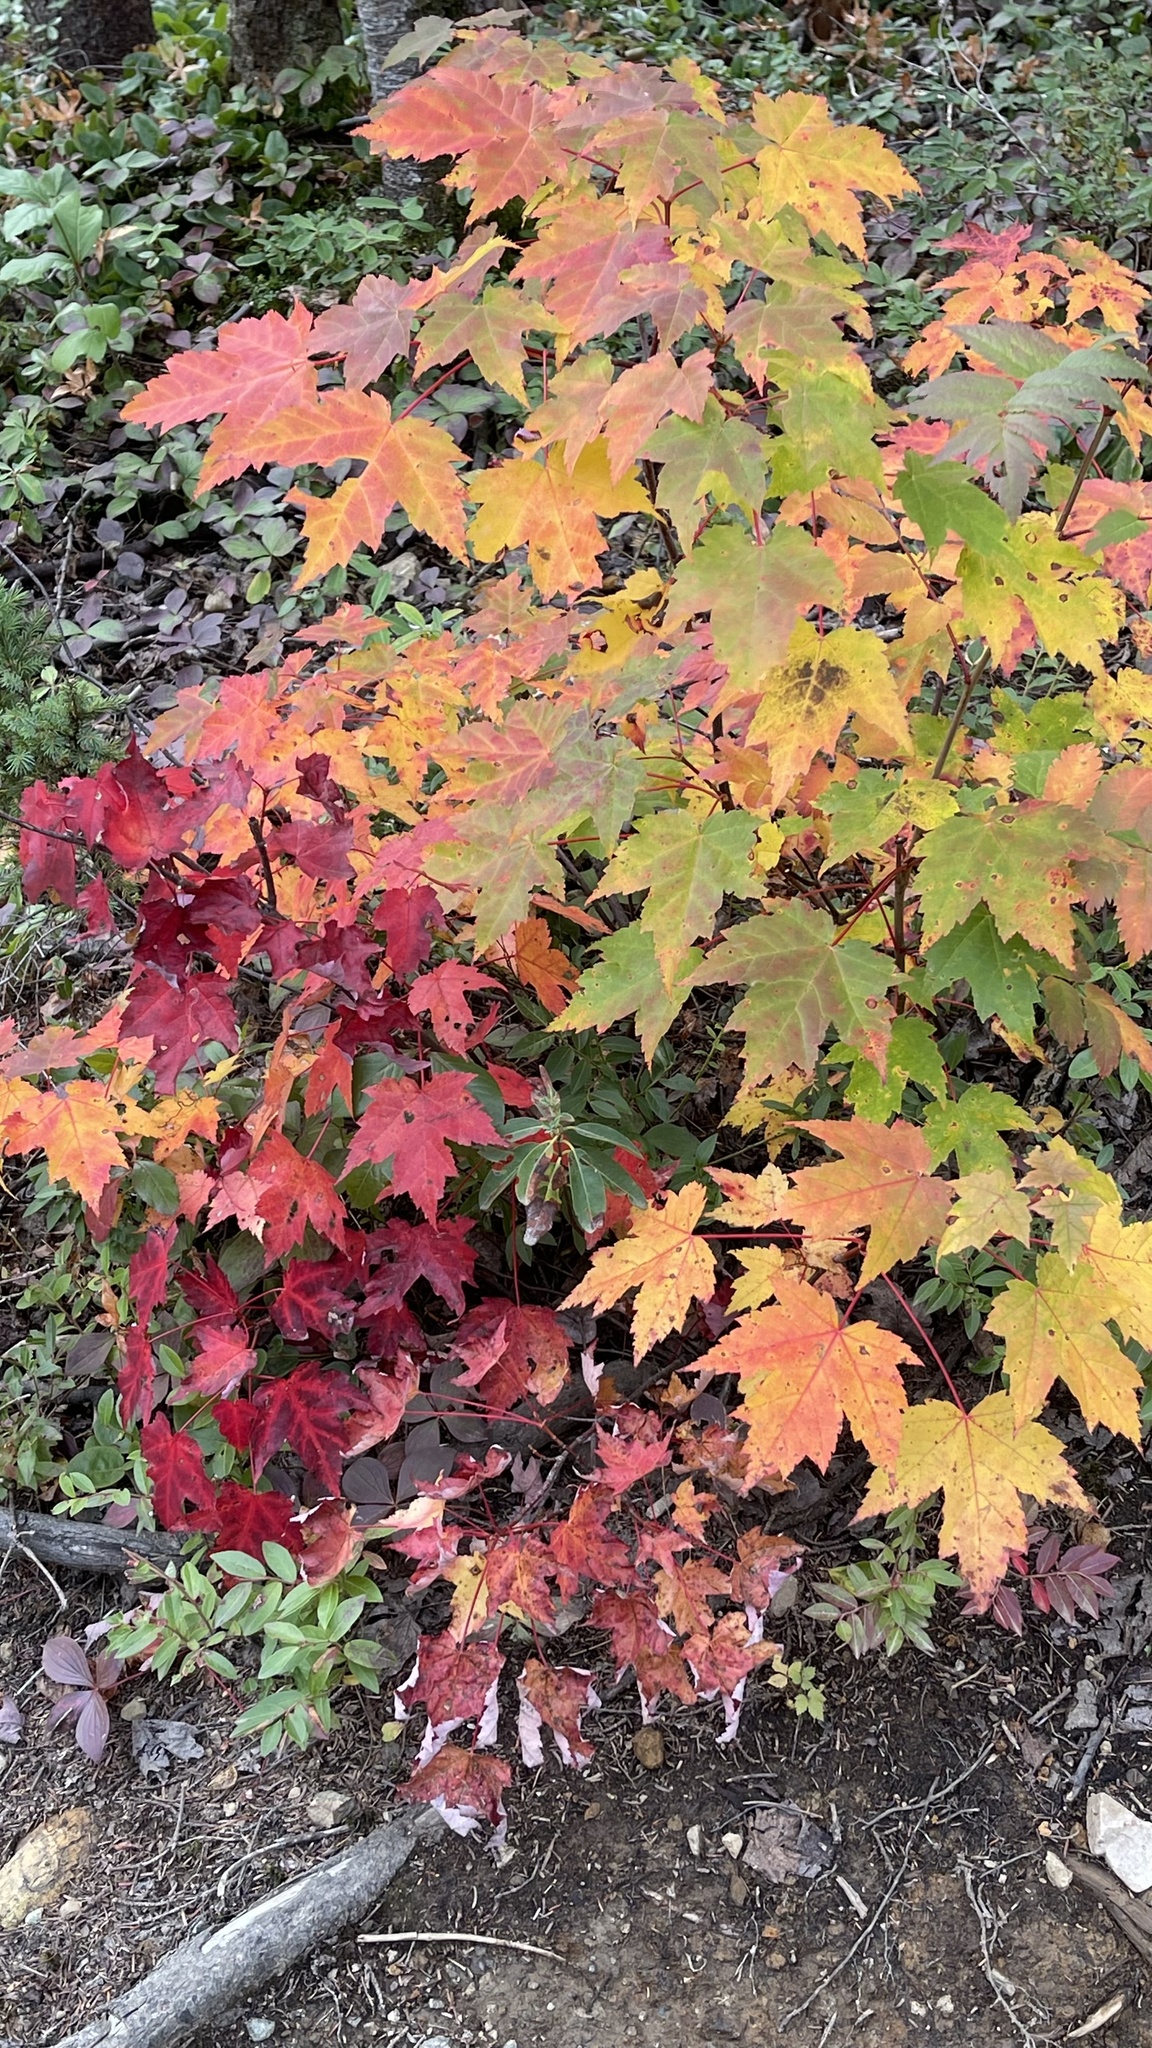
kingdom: Plantae
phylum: Tracheophyta
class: Magnoliopsida
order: Sapindales
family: Sapindaceae
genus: Acer
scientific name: Acer rubrum
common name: Red maple
